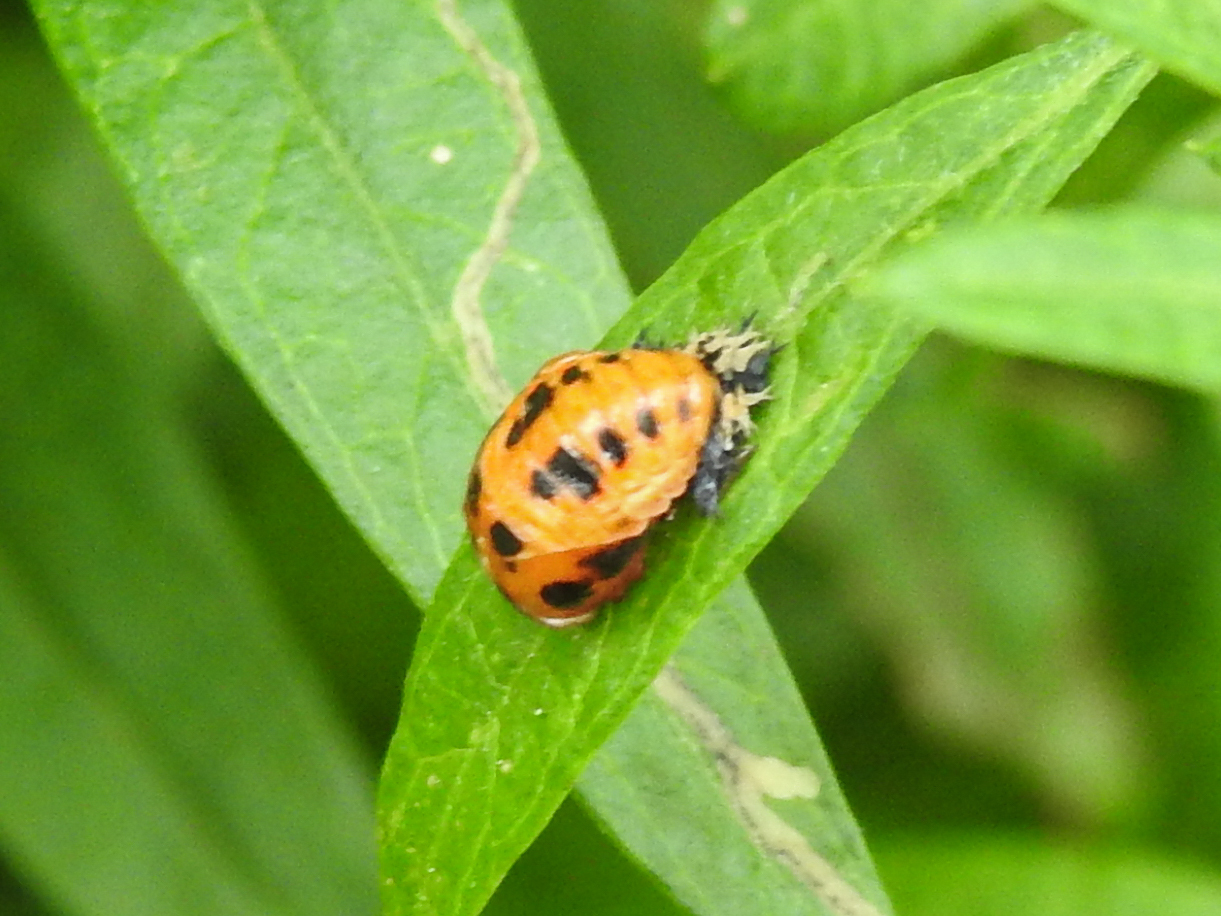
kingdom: Animalia
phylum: Arthropoda
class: Insecta
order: Coleoptera
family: Coccinellidae
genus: Harmonia
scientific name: Harmonia axyridis
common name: Harlequin ladybird
